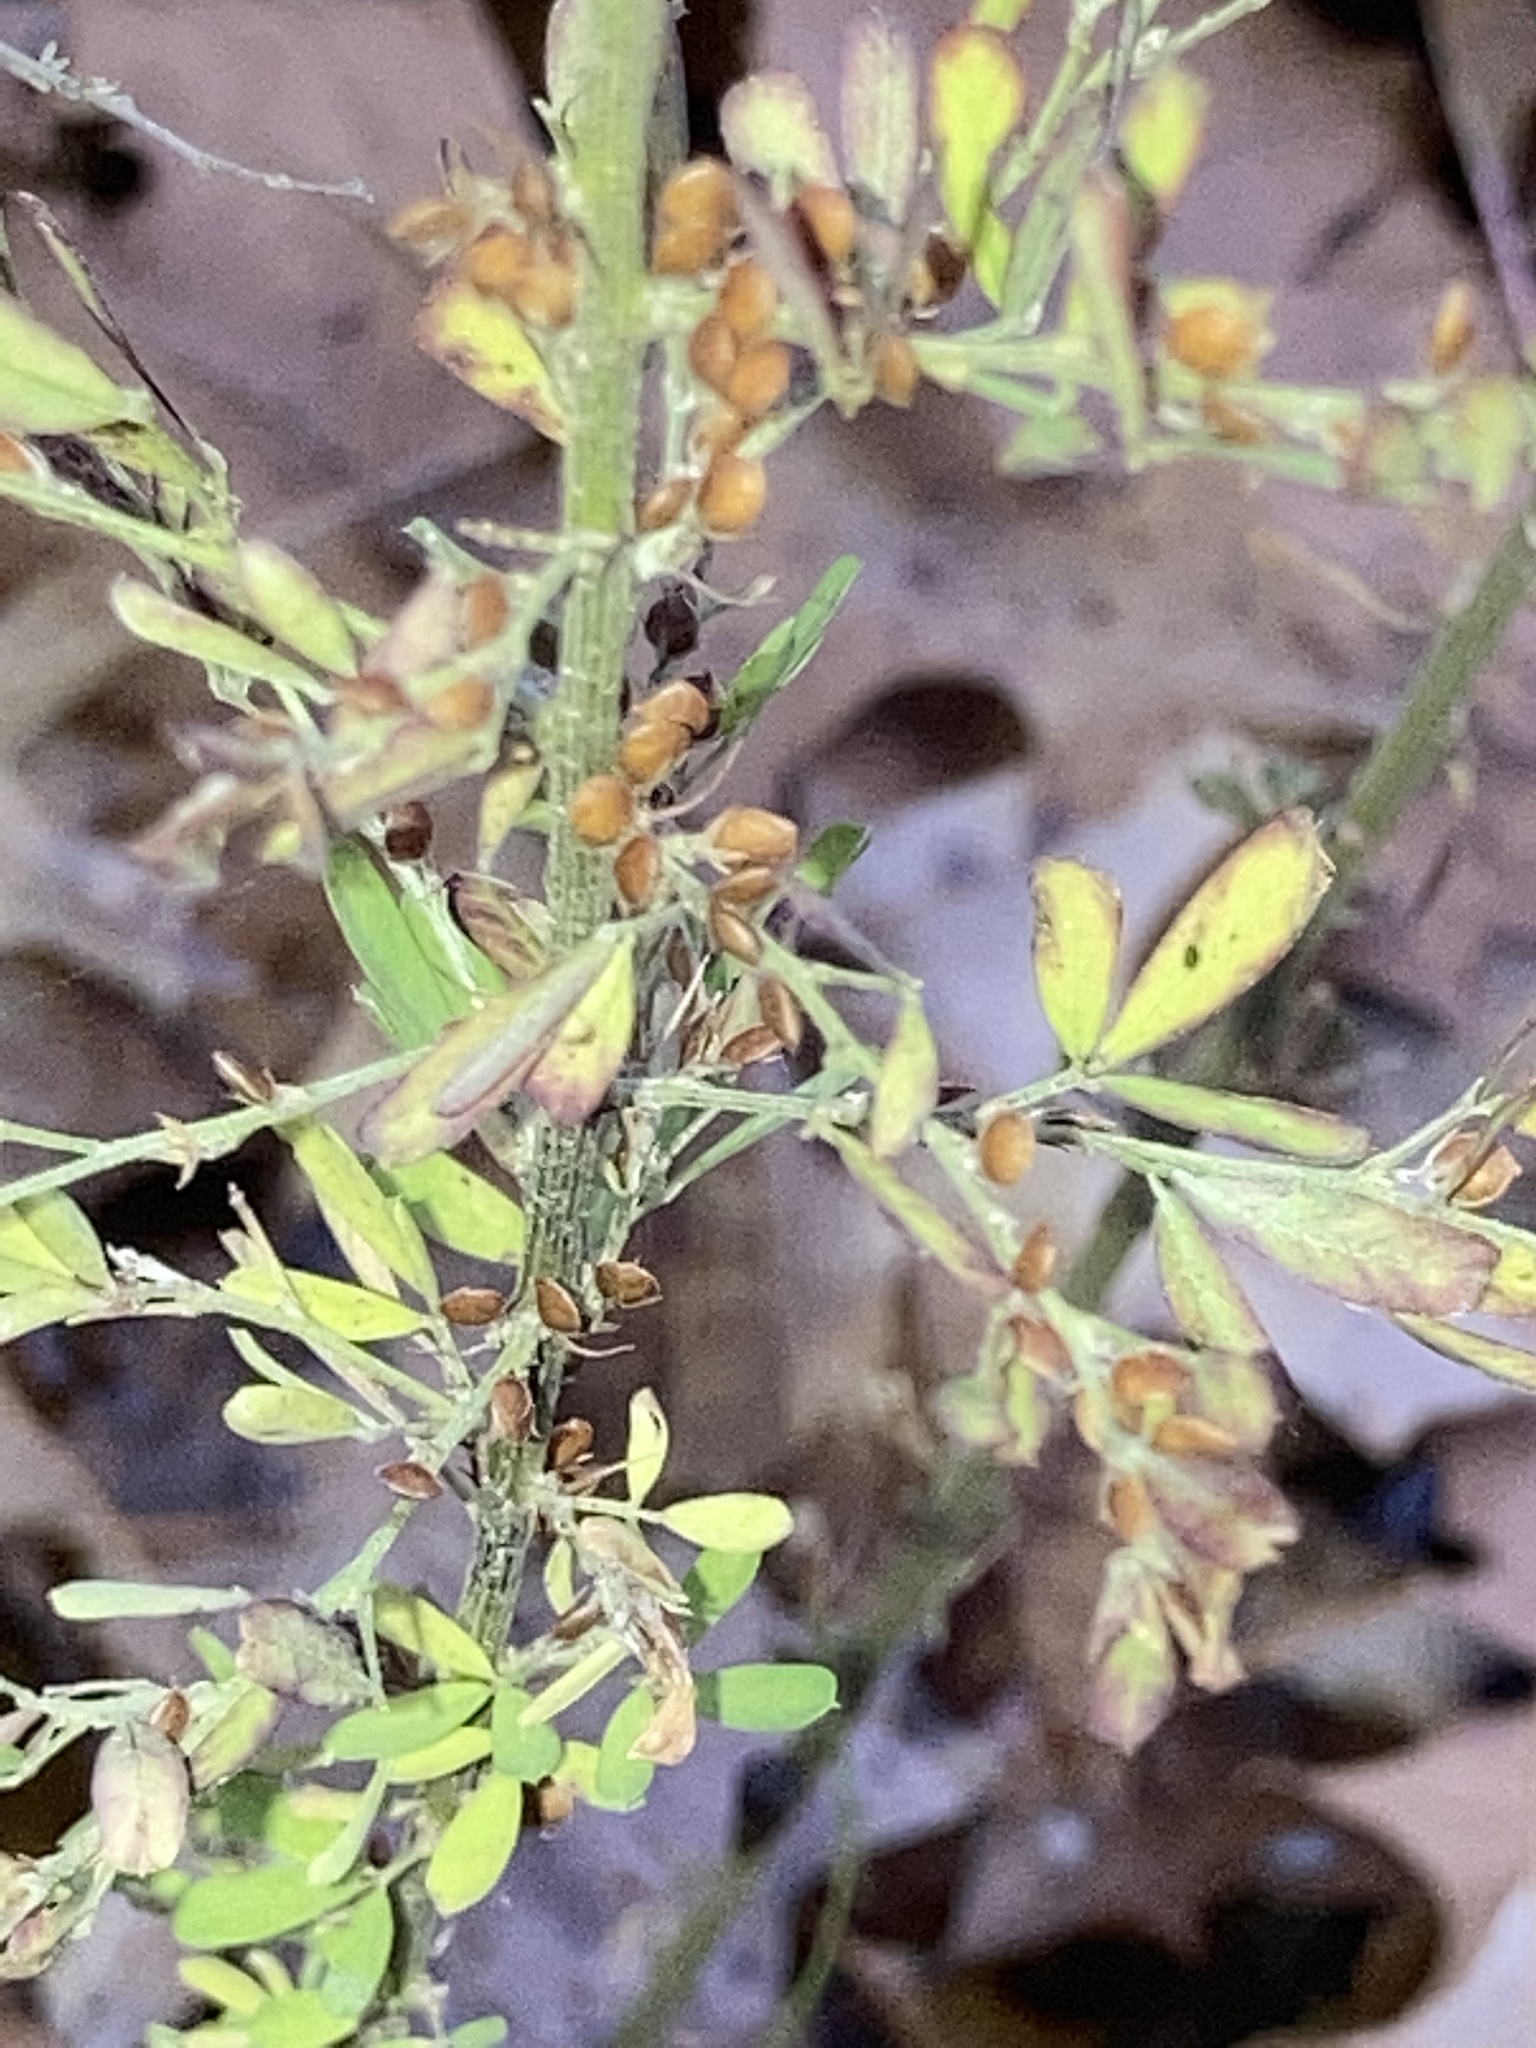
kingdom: Plantae
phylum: Tracheophyta
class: Magnoliopsida
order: Fabales
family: Fabaceae
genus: Lespedeza
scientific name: Lespedeza cuneata
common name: Chinese bush-clover
